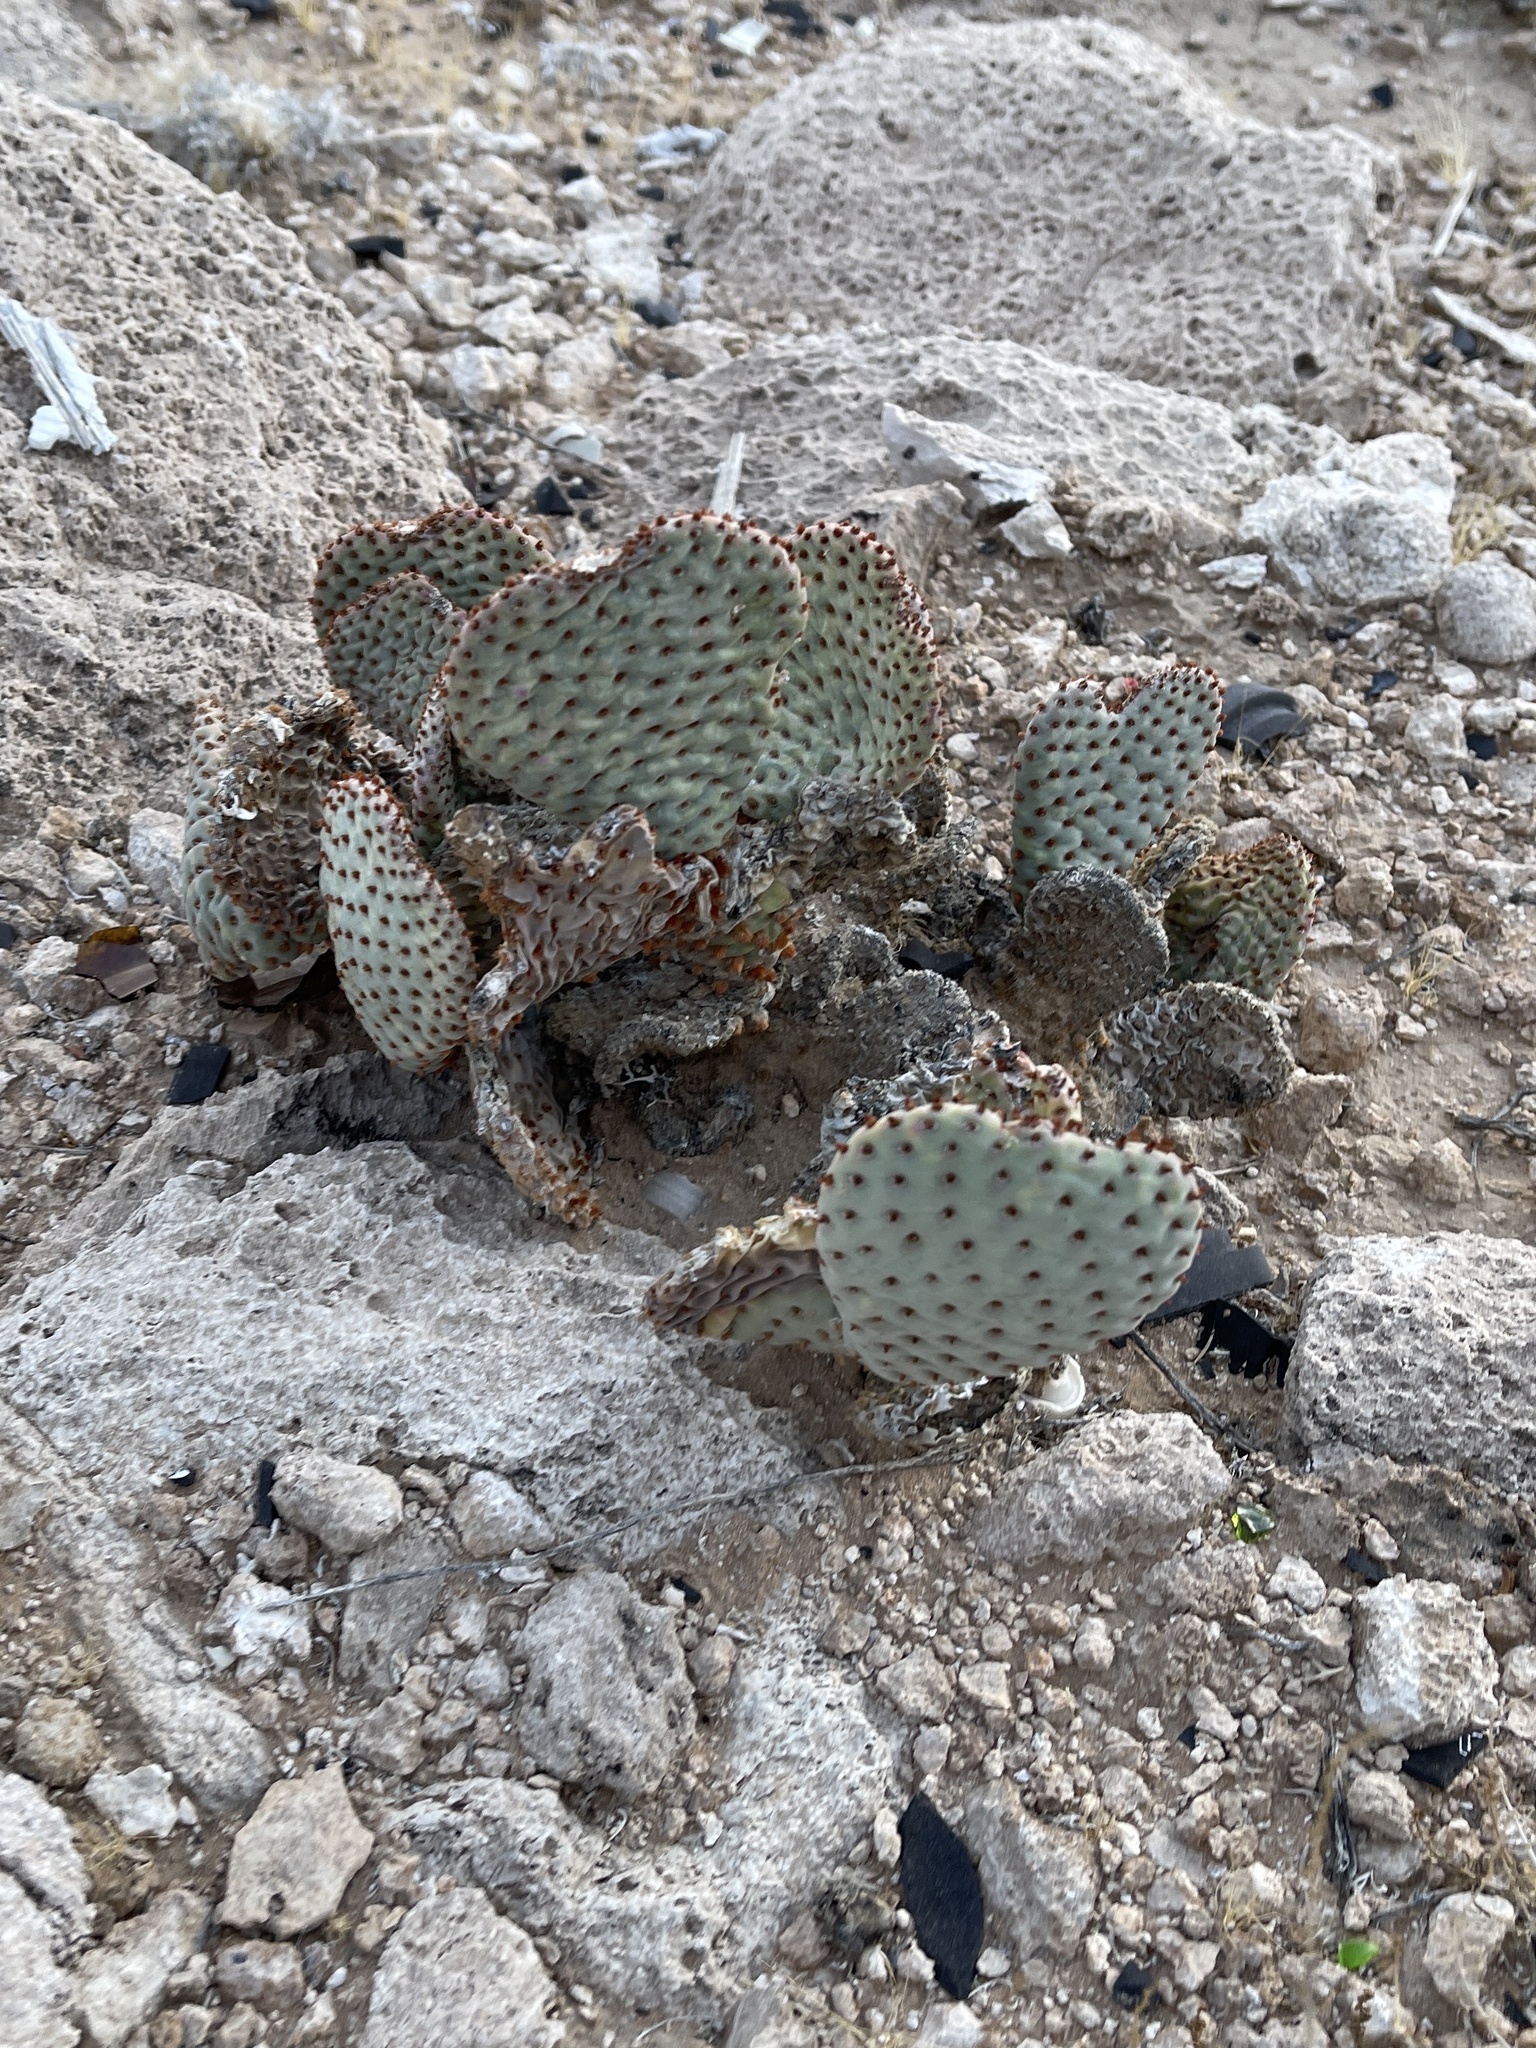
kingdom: Plantae
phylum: Tracheophyta
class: Magnoliopsida
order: Caryophyllales
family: Cactaceae
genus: Opuntia
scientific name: Opuntia basilaris
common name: Beavertail prickly-pear
